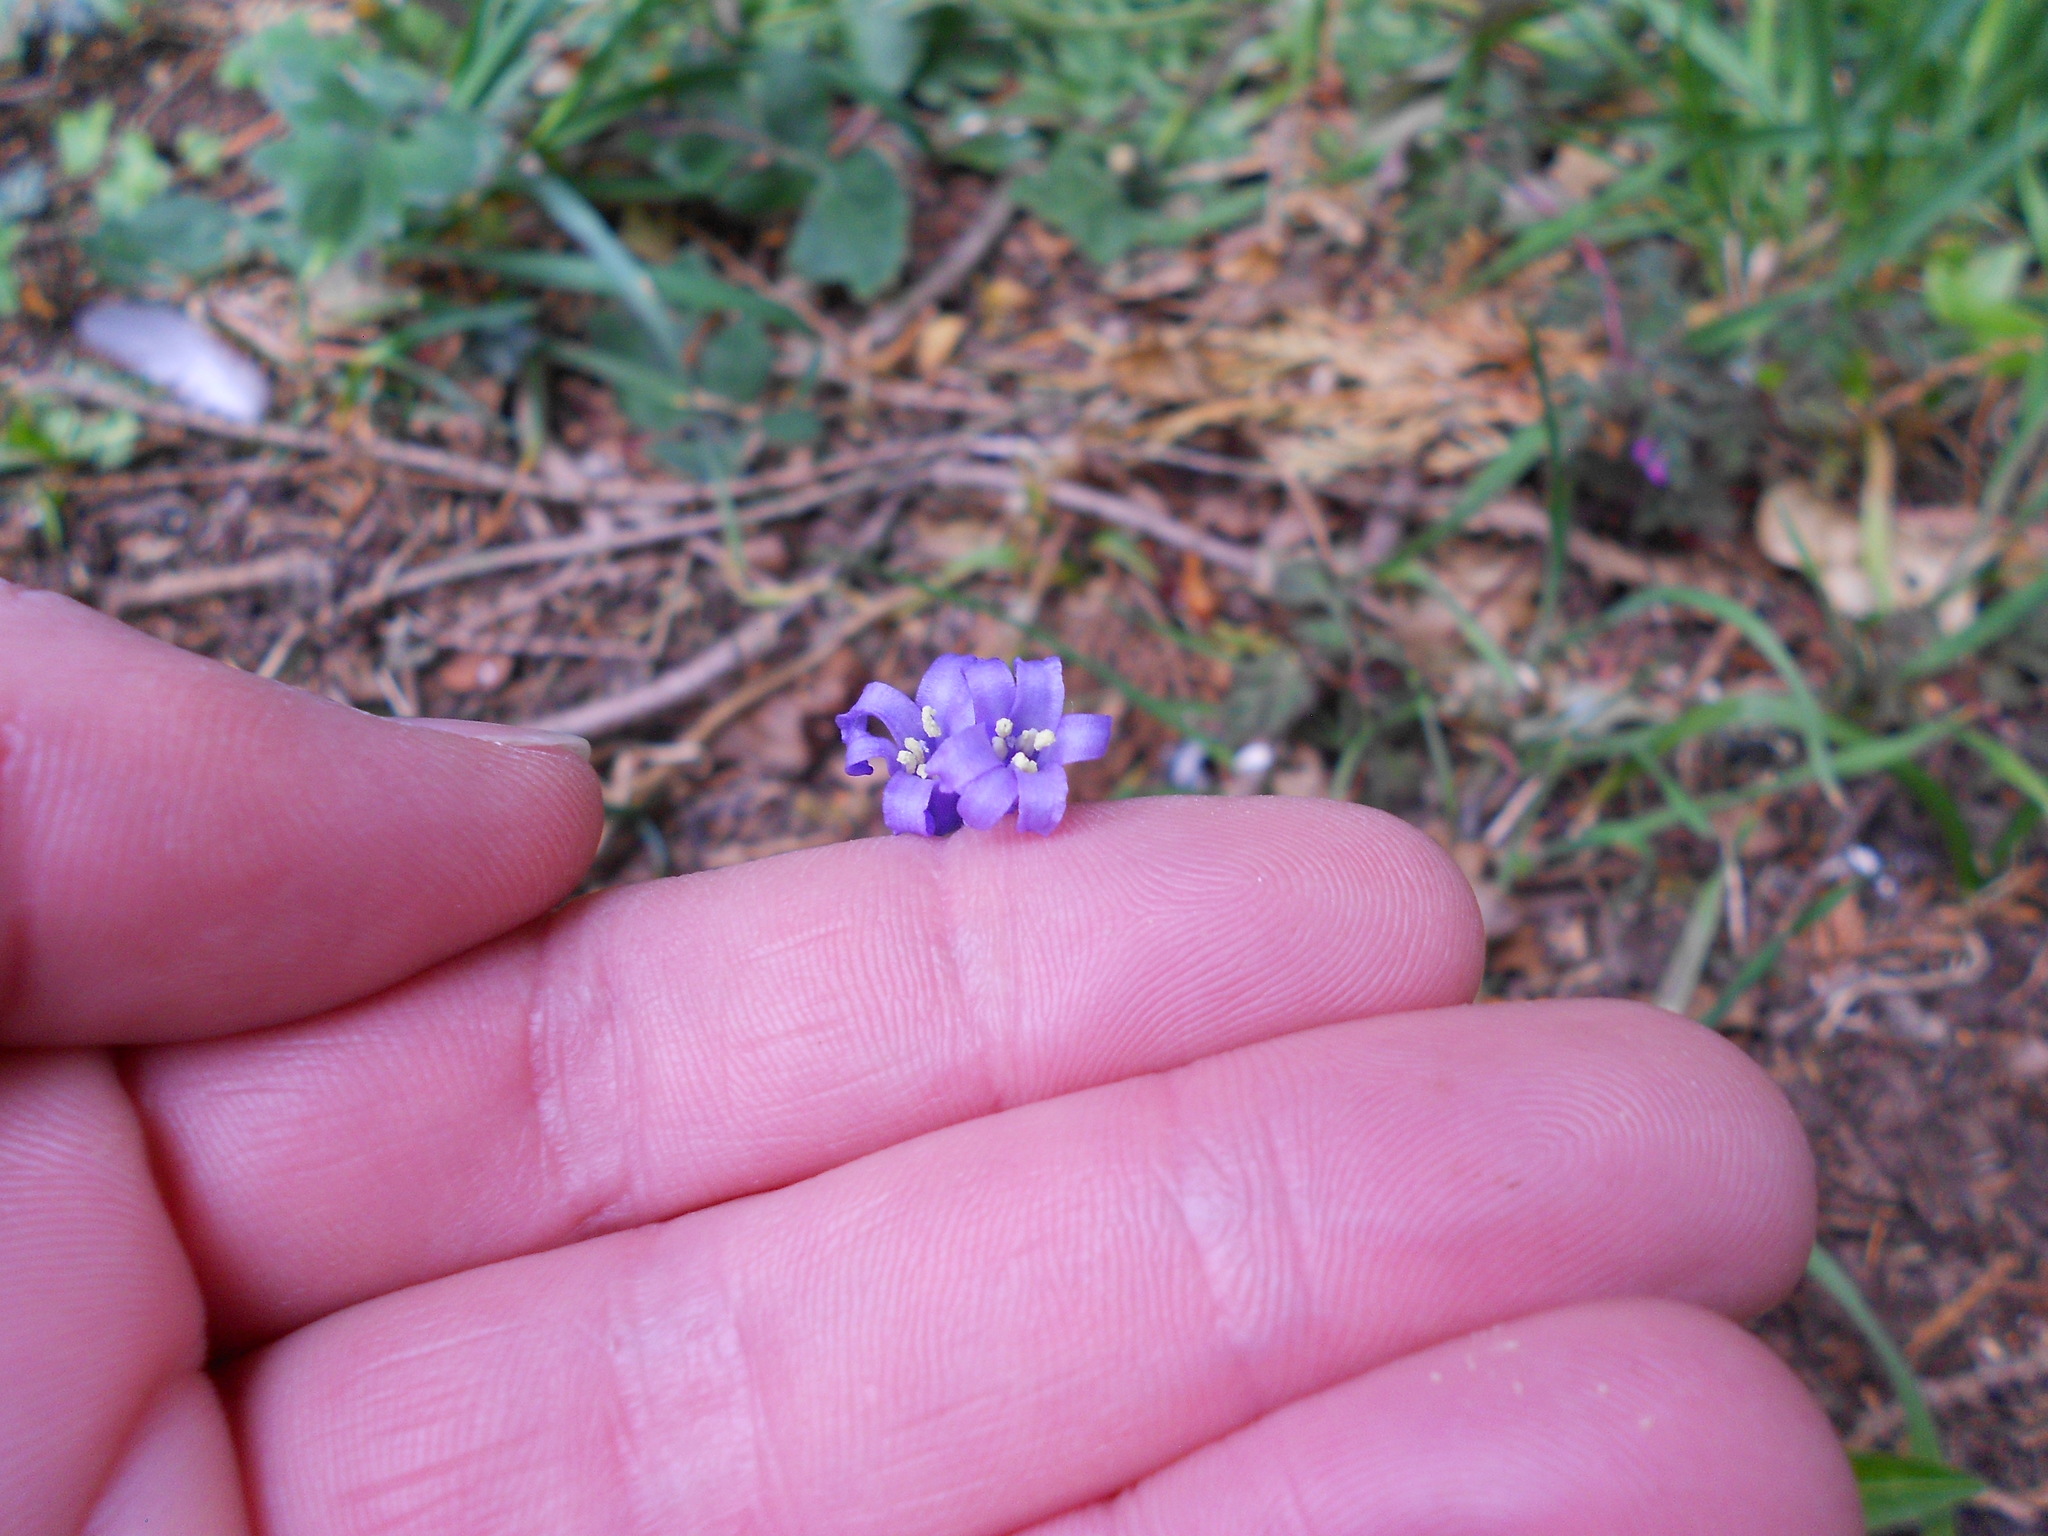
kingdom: Plantae
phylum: Tracheophyta
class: Liliopsida
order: Asparagales
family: Asparagaceae
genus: Hyacinthoides
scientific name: Hyacinthoides non-scripta
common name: Bluebell
